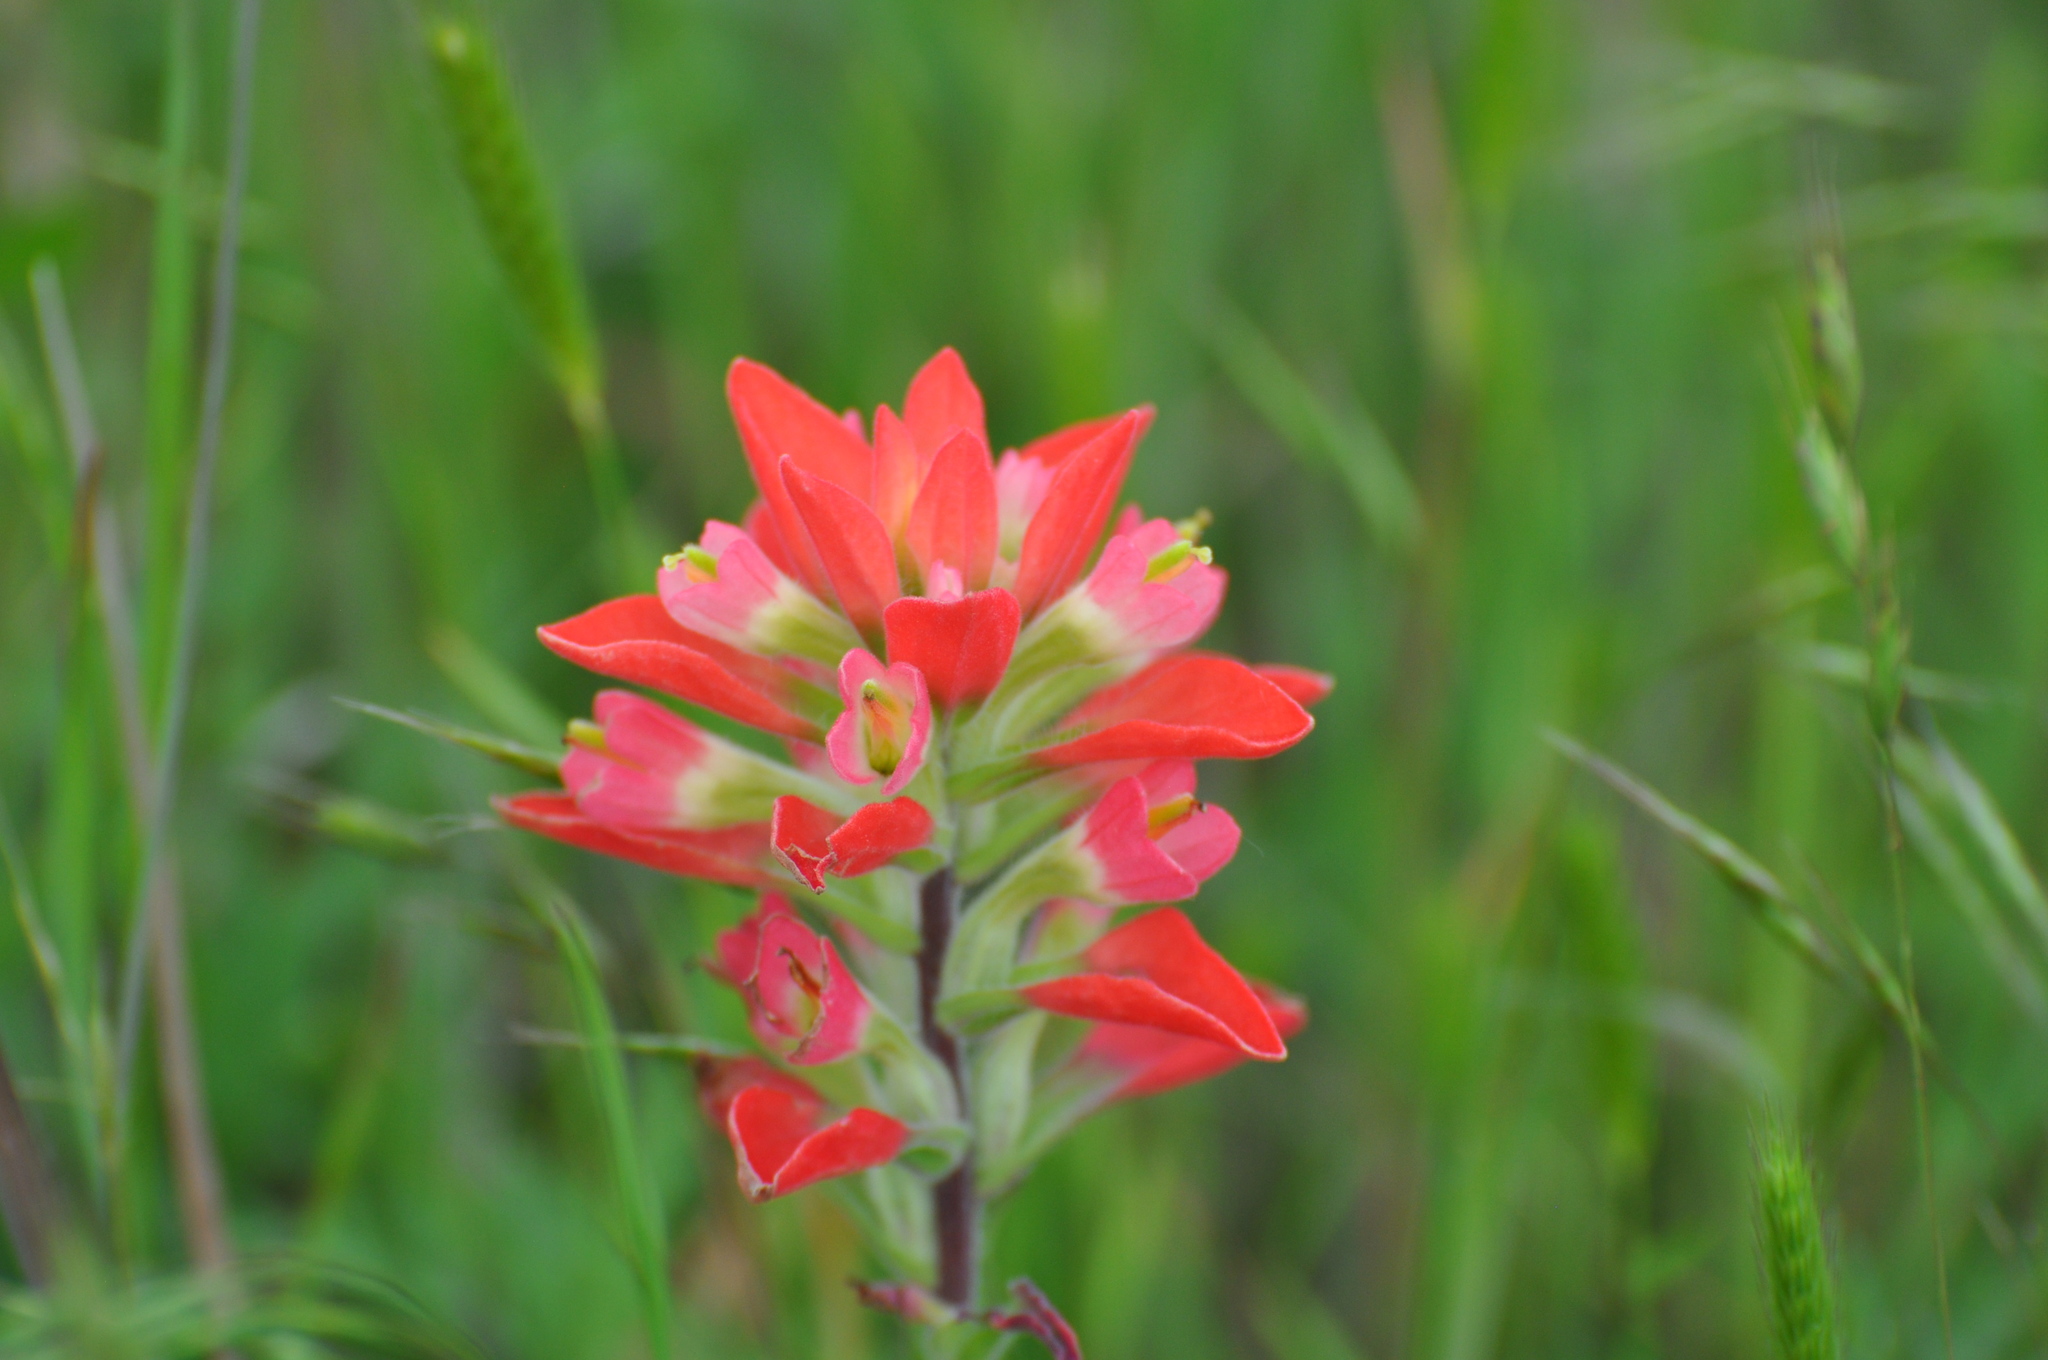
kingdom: Plantae
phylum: Tracheophyta
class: Magnoliopsida
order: Lamiales
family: Orobanchaceae
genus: Castilleja
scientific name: Castilleja indivisa
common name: Texas paintbrush
